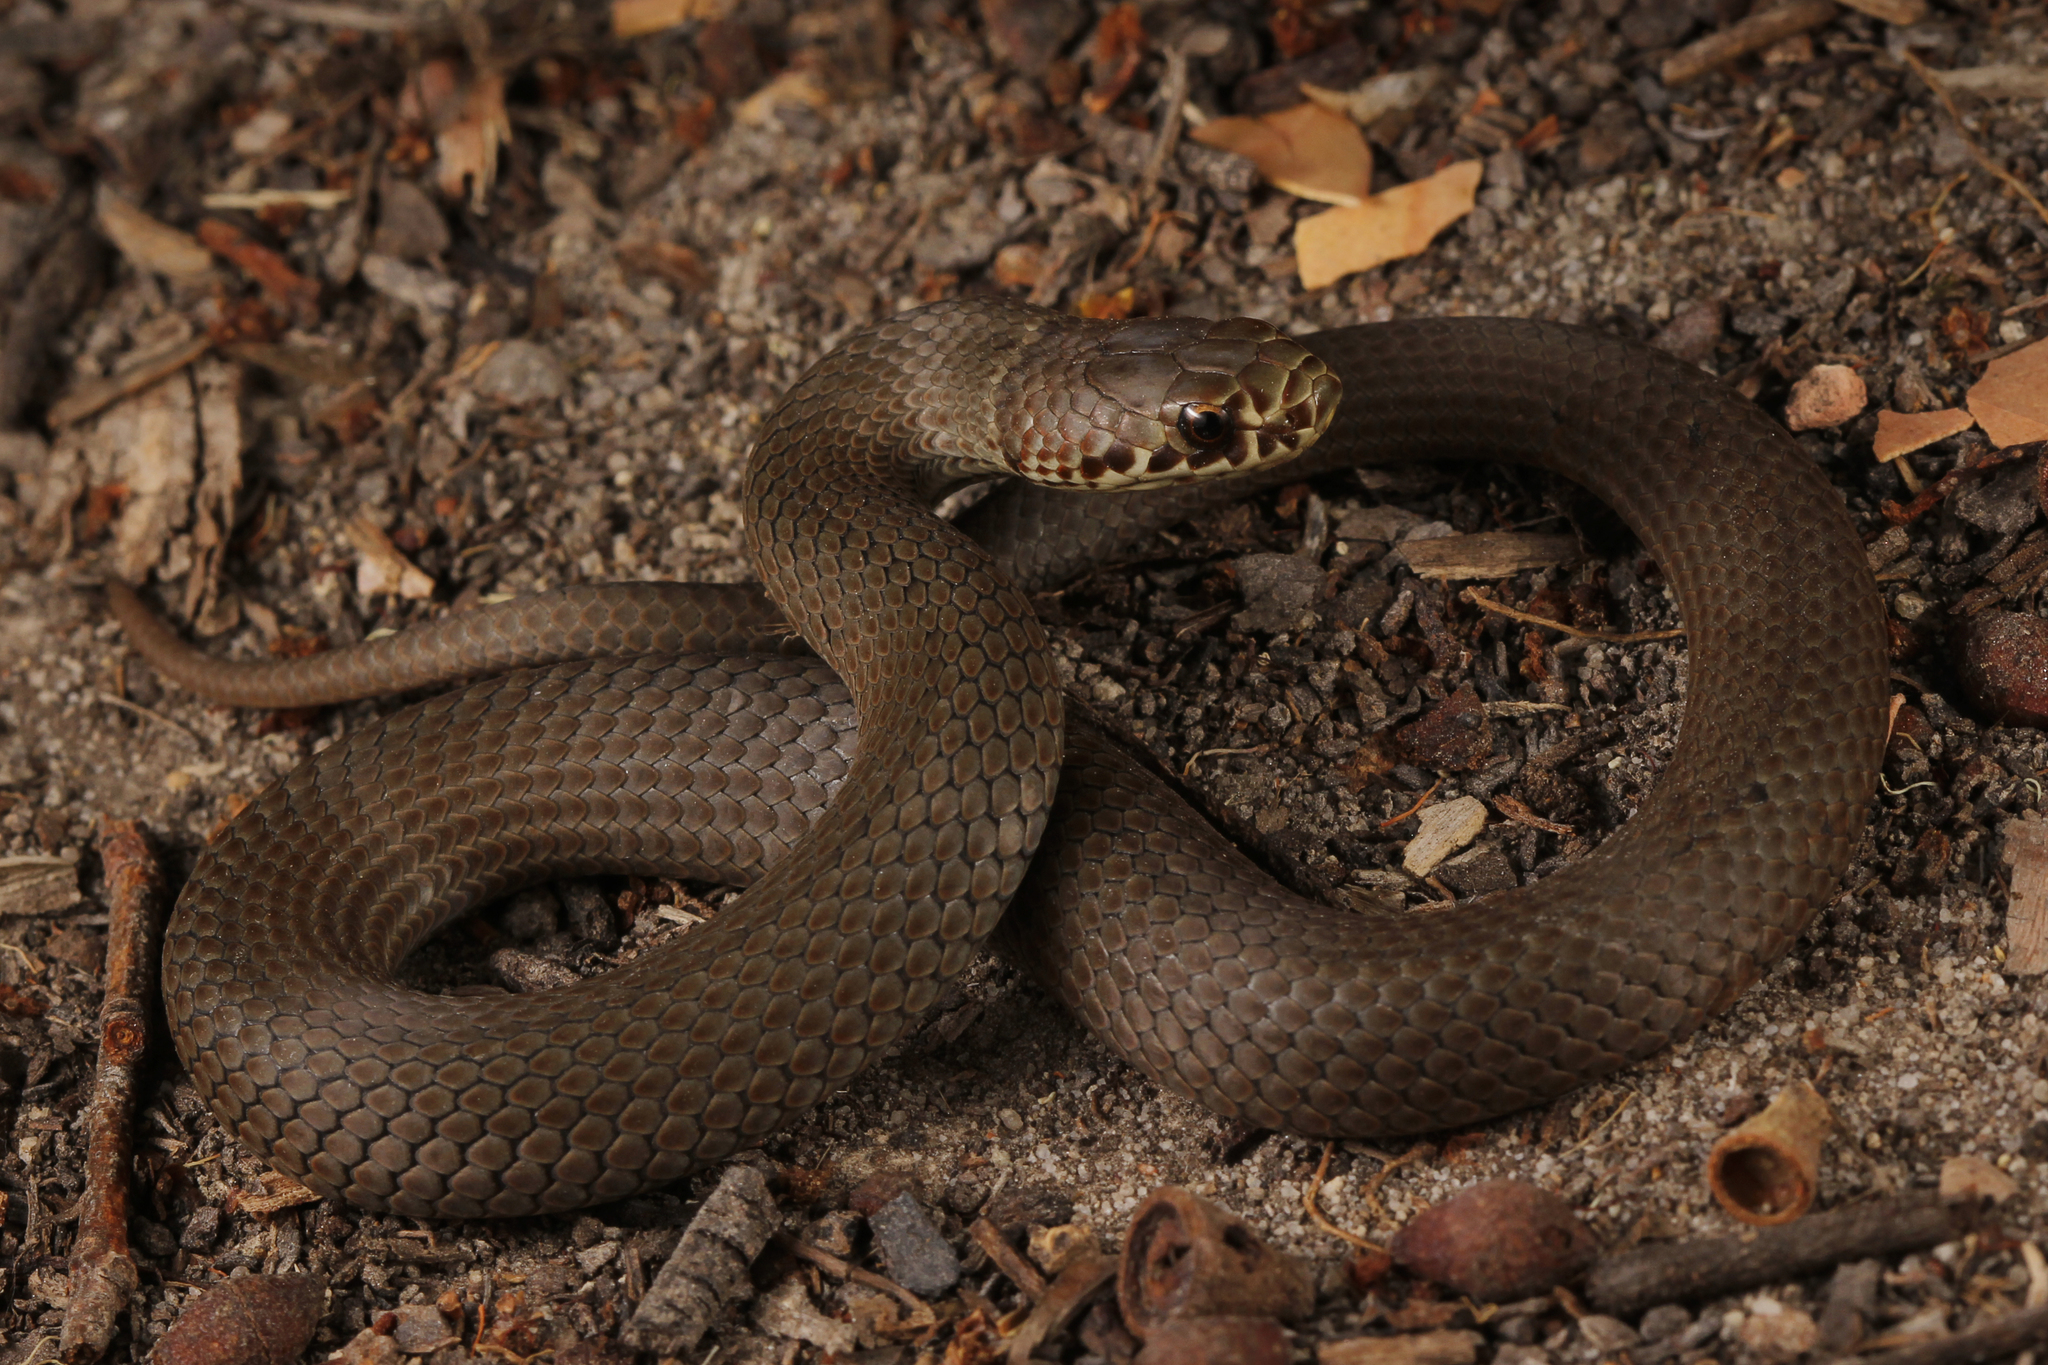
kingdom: Animalia
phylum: Chordata
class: Squamata
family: Elapidae
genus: Austrelaps
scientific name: Austrelaps labialis
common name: Pygmy copperhead
